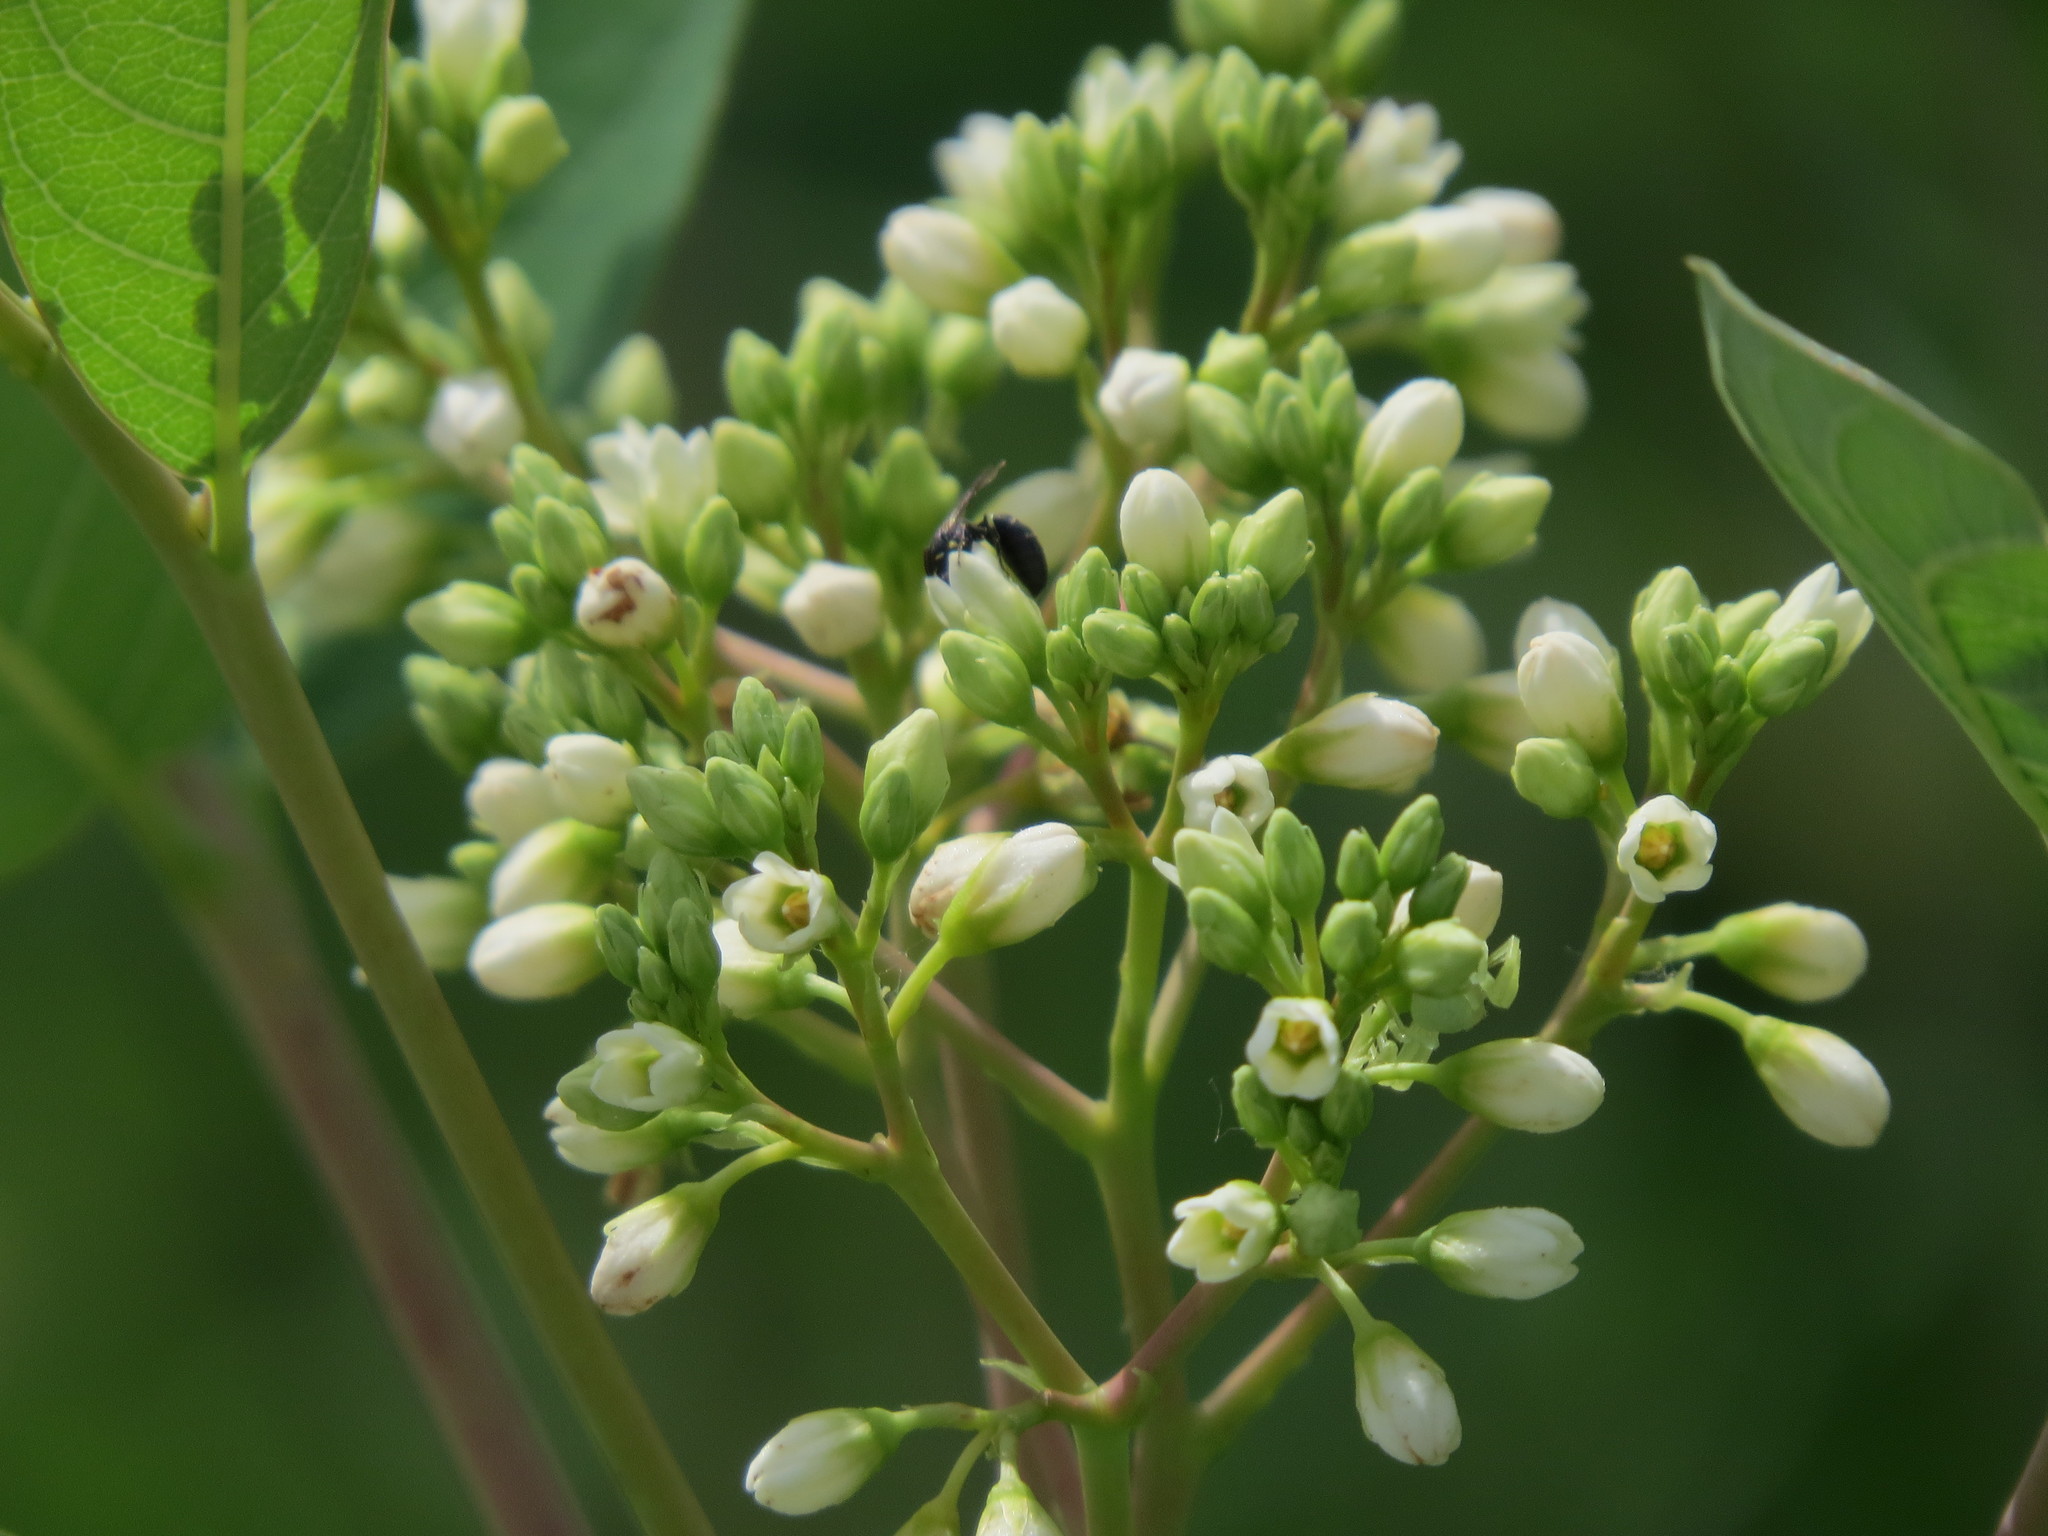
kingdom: Plantae
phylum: Tracheophyta
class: Magnoliopsida
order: Gentianales
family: Apocynaceae
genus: Apocynum
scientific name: Apocynum cannabinum
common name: Hemp dogbane
